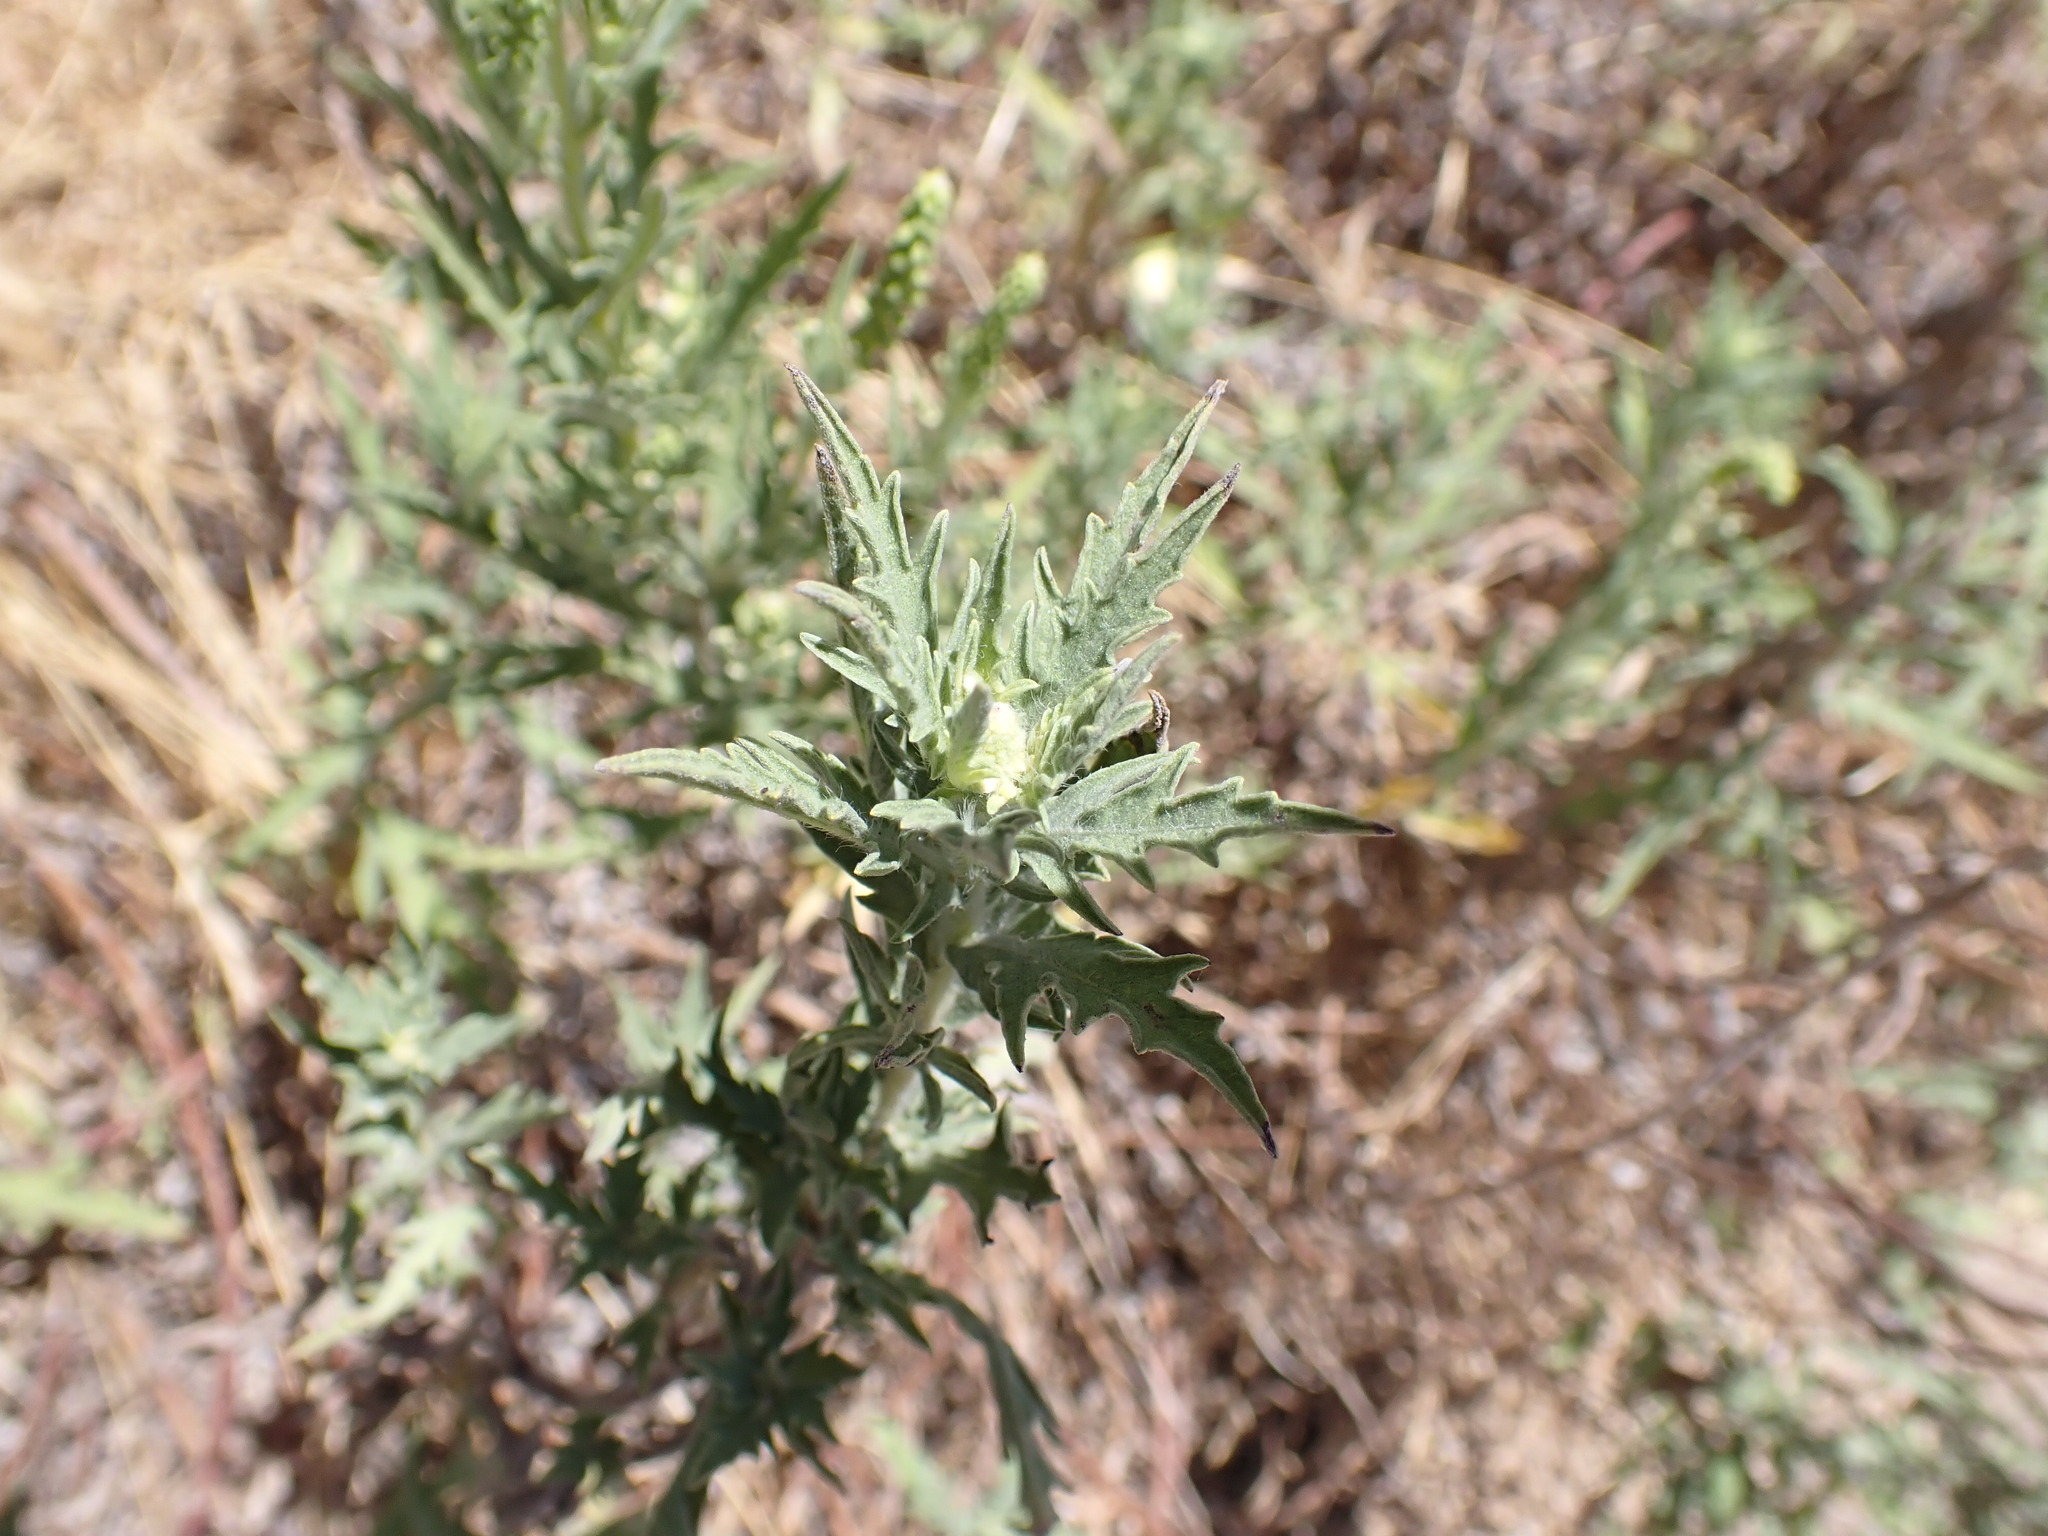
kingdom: Plantae
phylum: Tracheophyta
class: Magnoliopsida
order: Asterales
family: Asteraceae
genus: Ambrosia
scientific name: Ambrosia psilostachya
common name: Perennial ragweed
